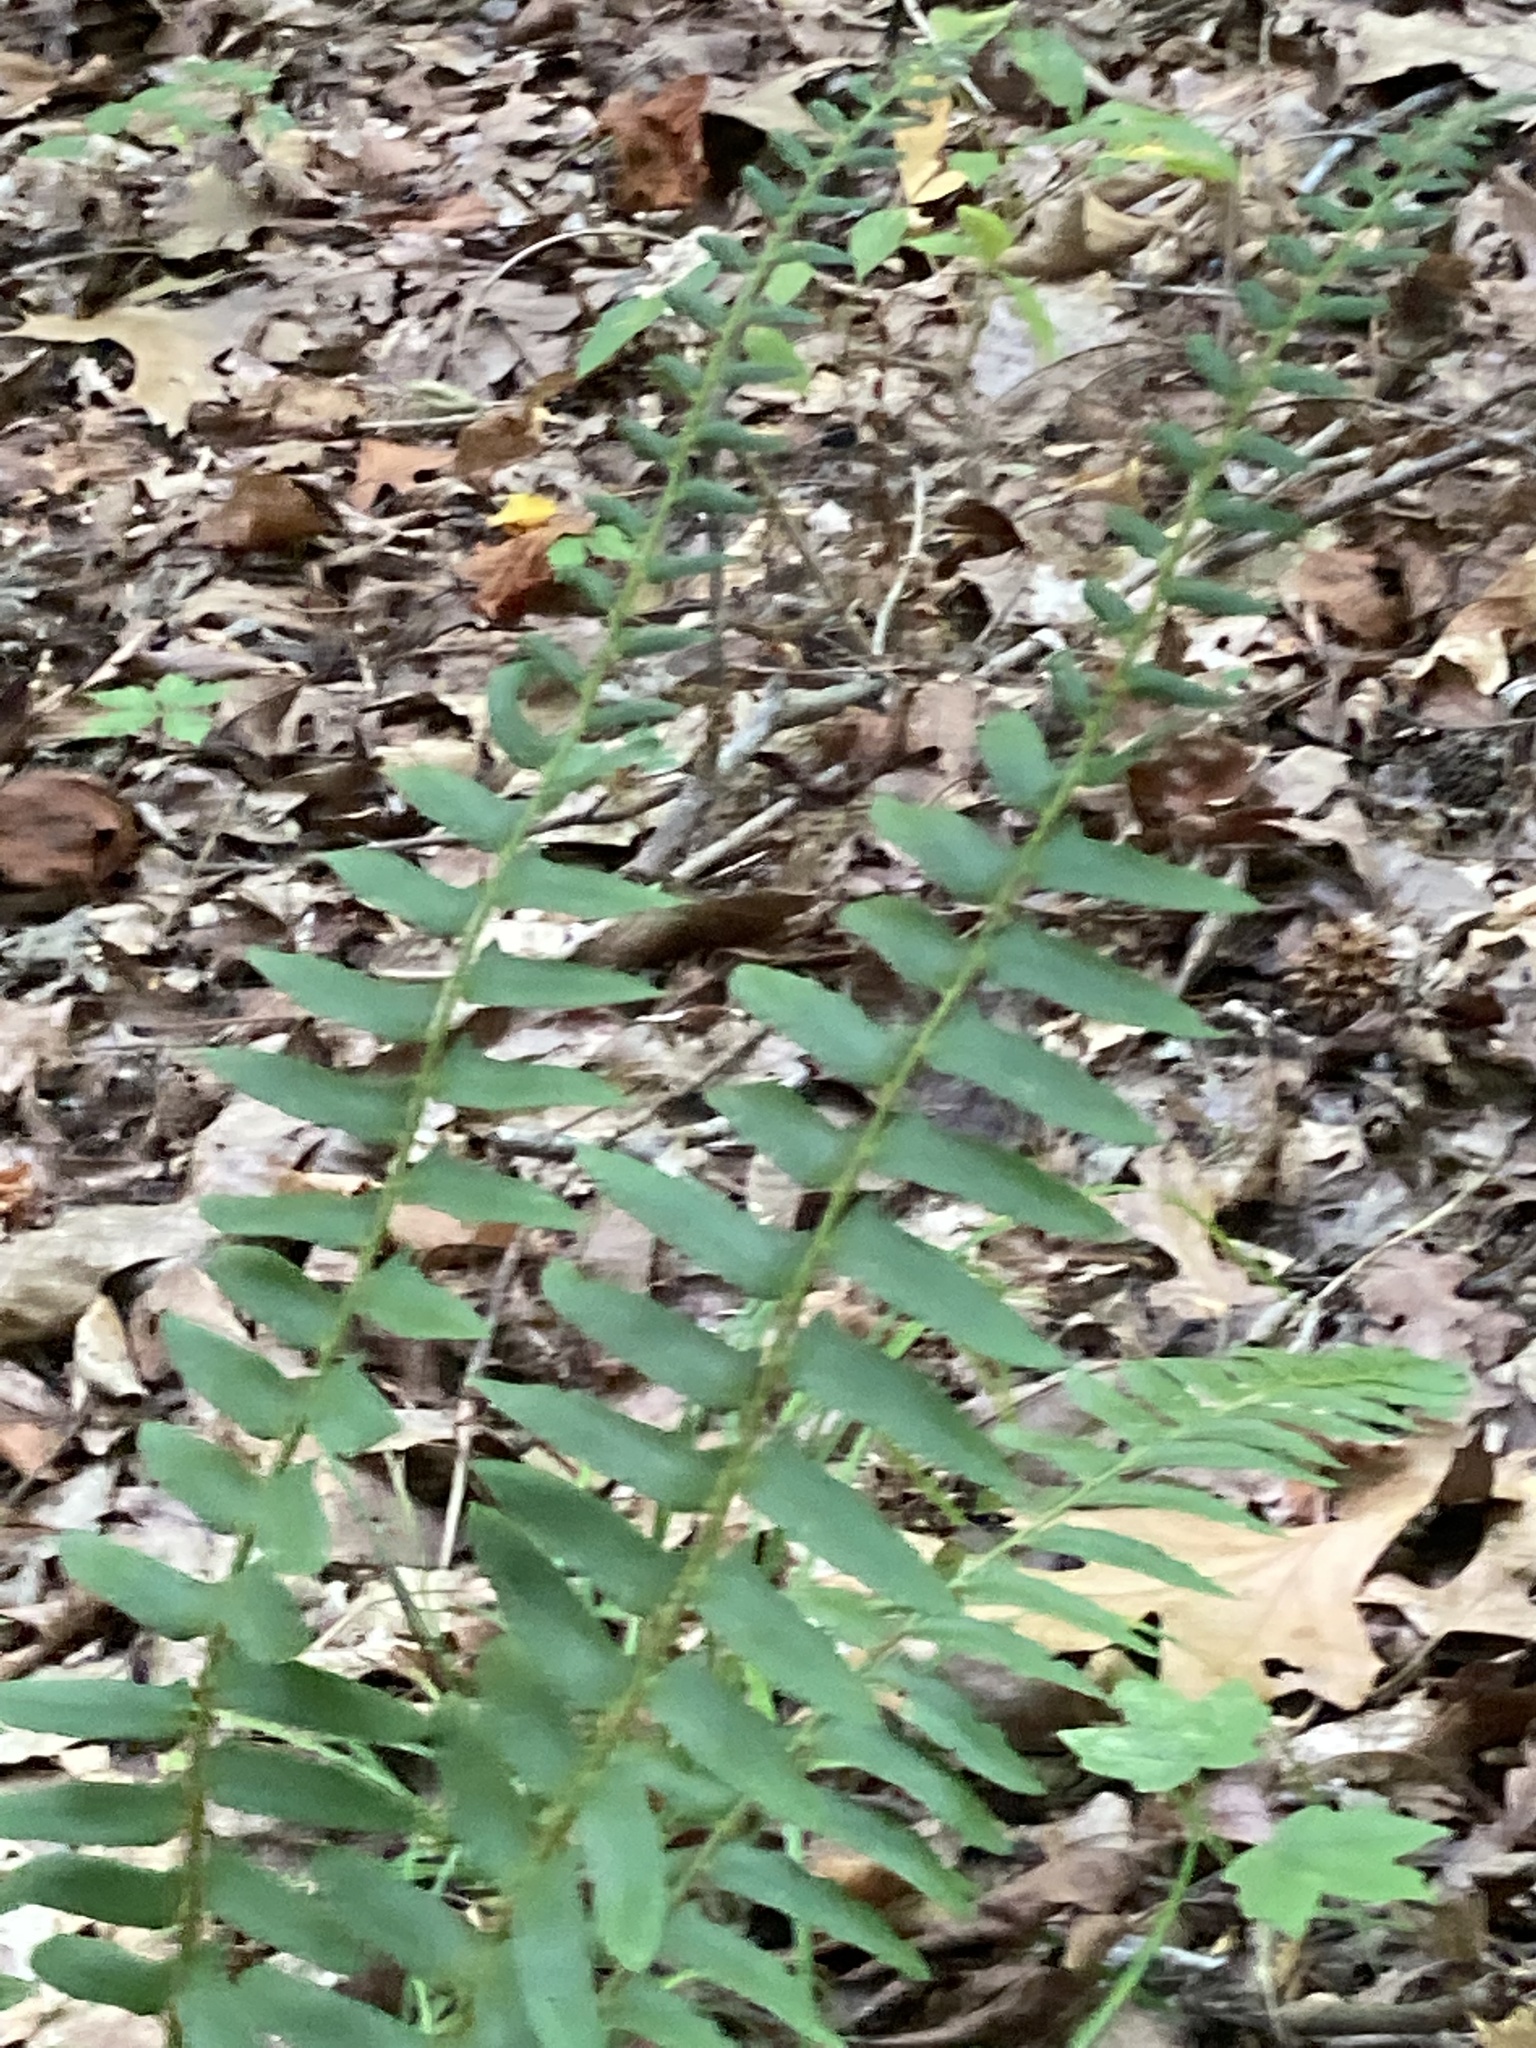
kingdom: Plantae
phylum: Tracheophyta
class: Polypodiopsida
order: Polypodiales
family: Dryopteridaceae
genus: Polystichum
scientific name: Polystichum acrostichoides
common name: Christmas fern
